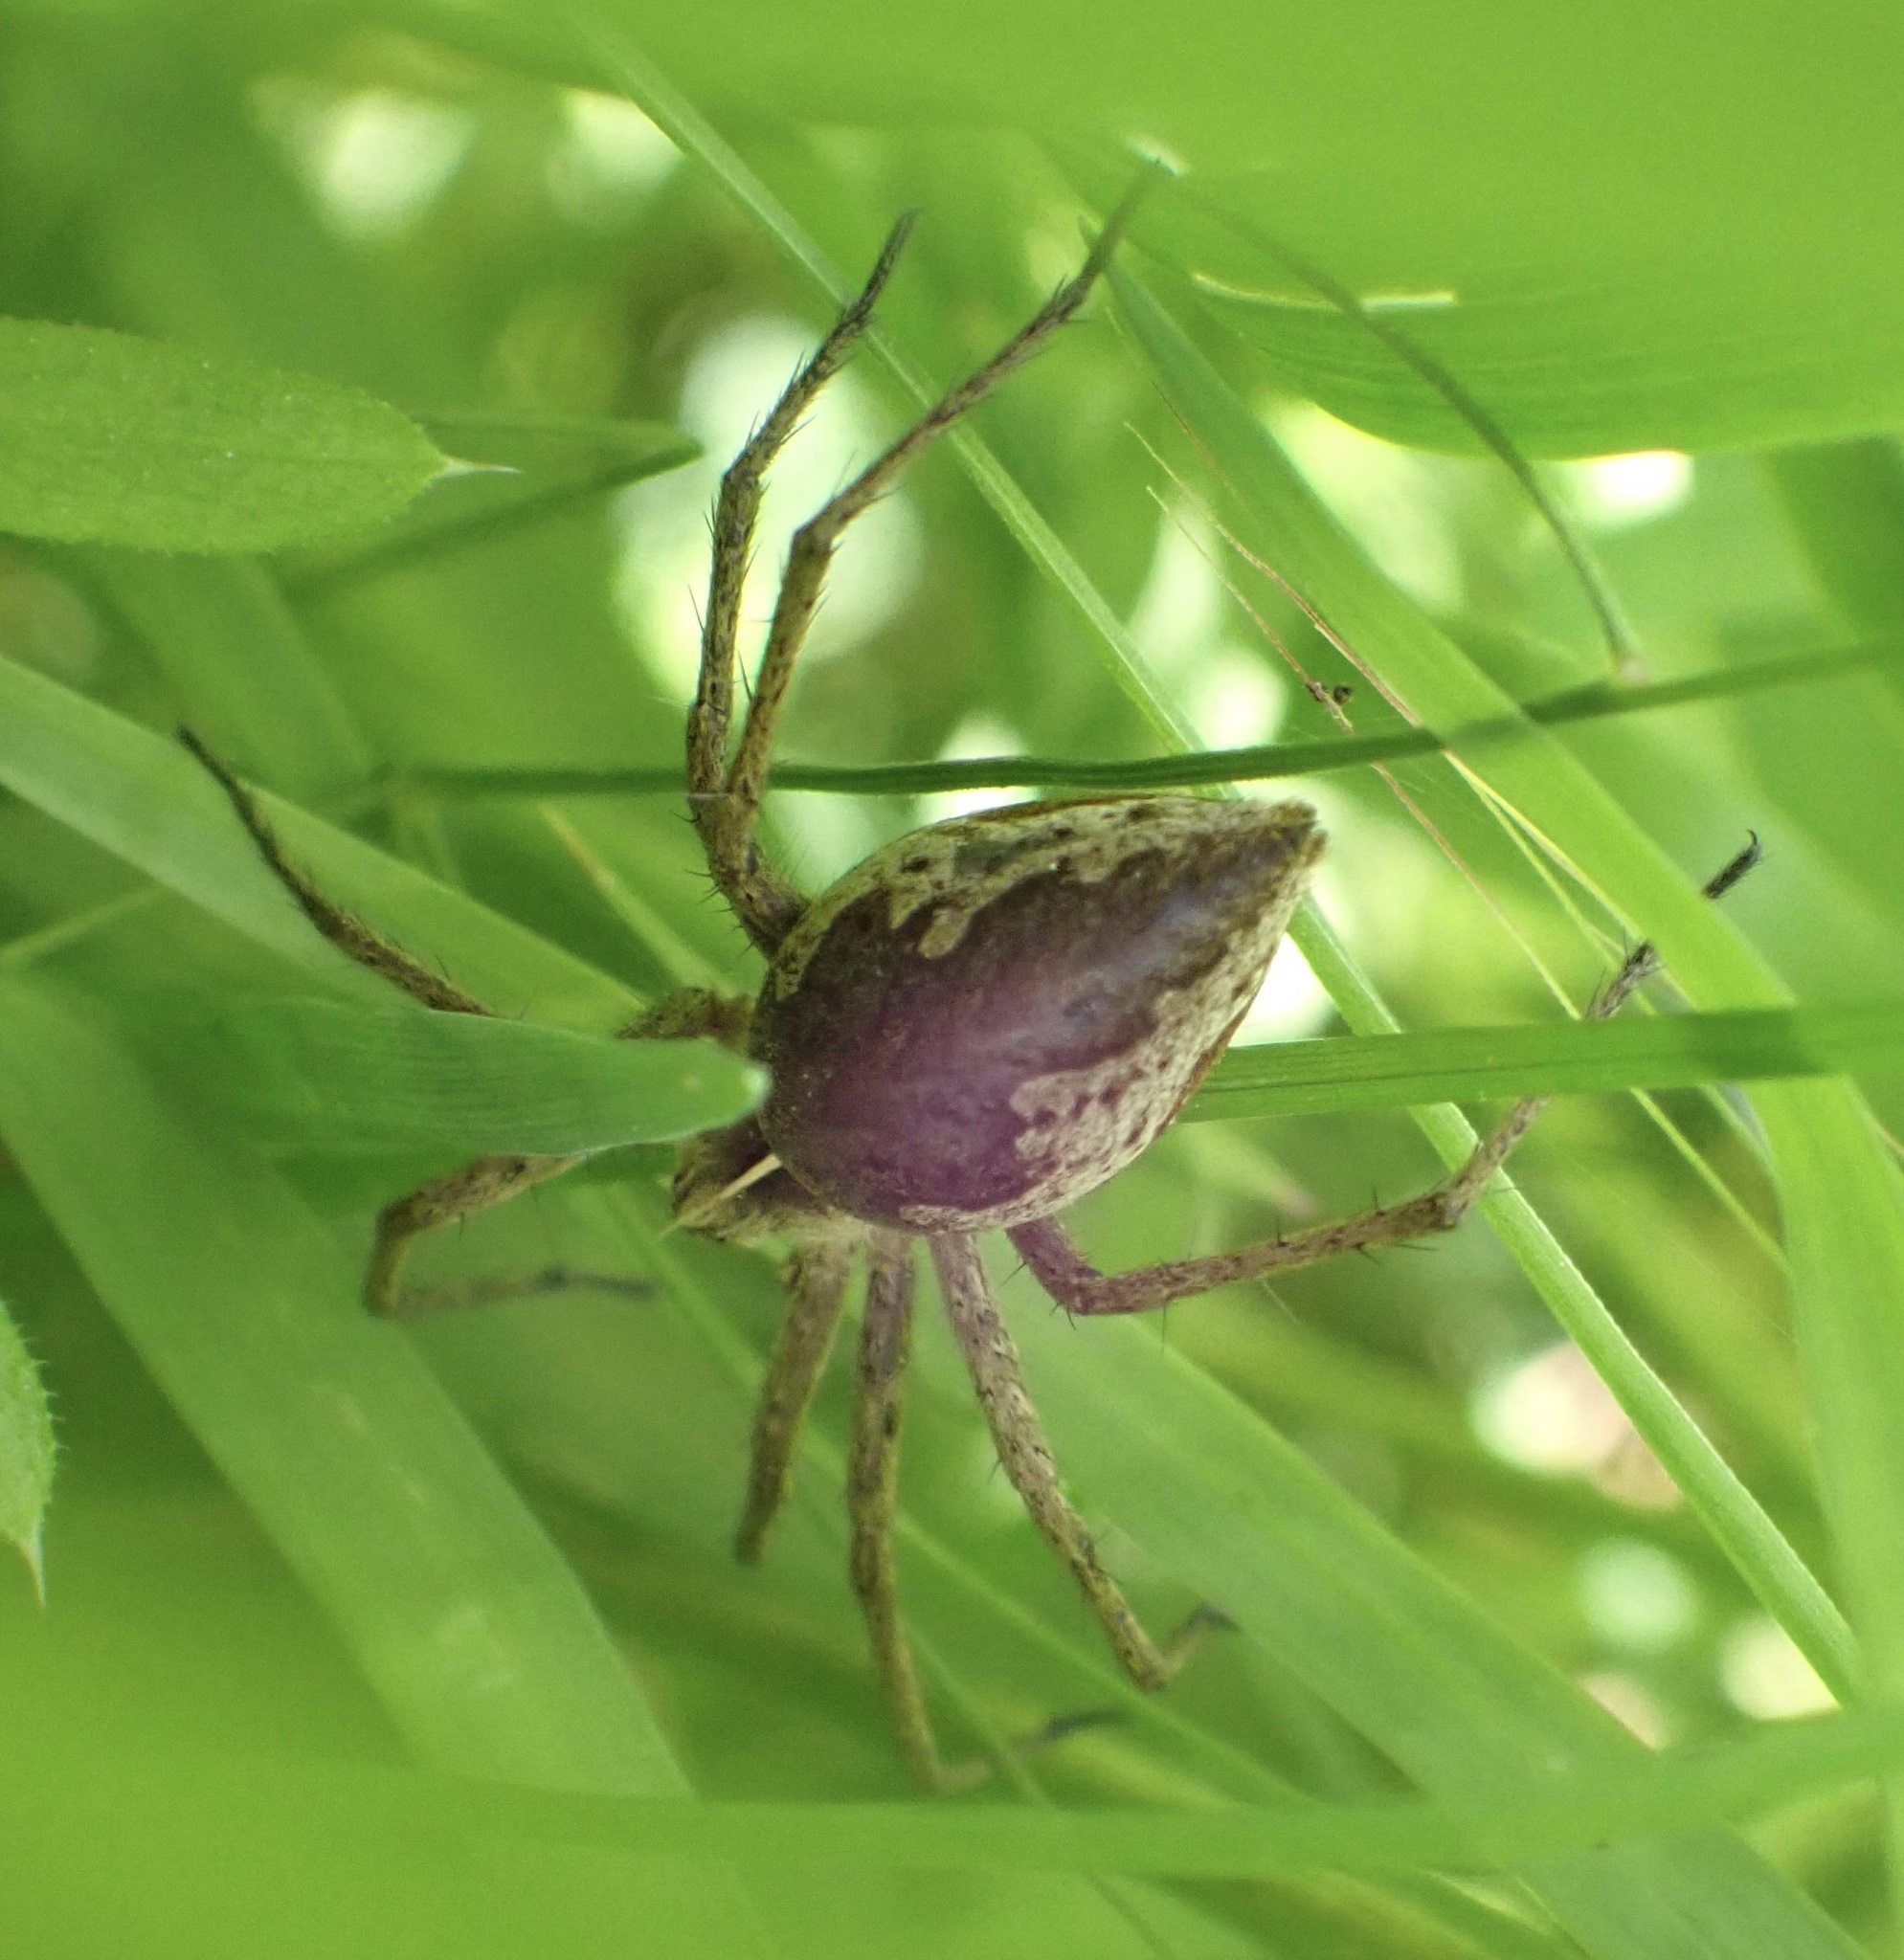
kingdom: Animalia
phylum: Arthropoda
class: Arachnida
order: Araneae
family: Pisauridae
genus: Pisaura
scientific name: Pisaura mirabilis
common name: Tent spider
